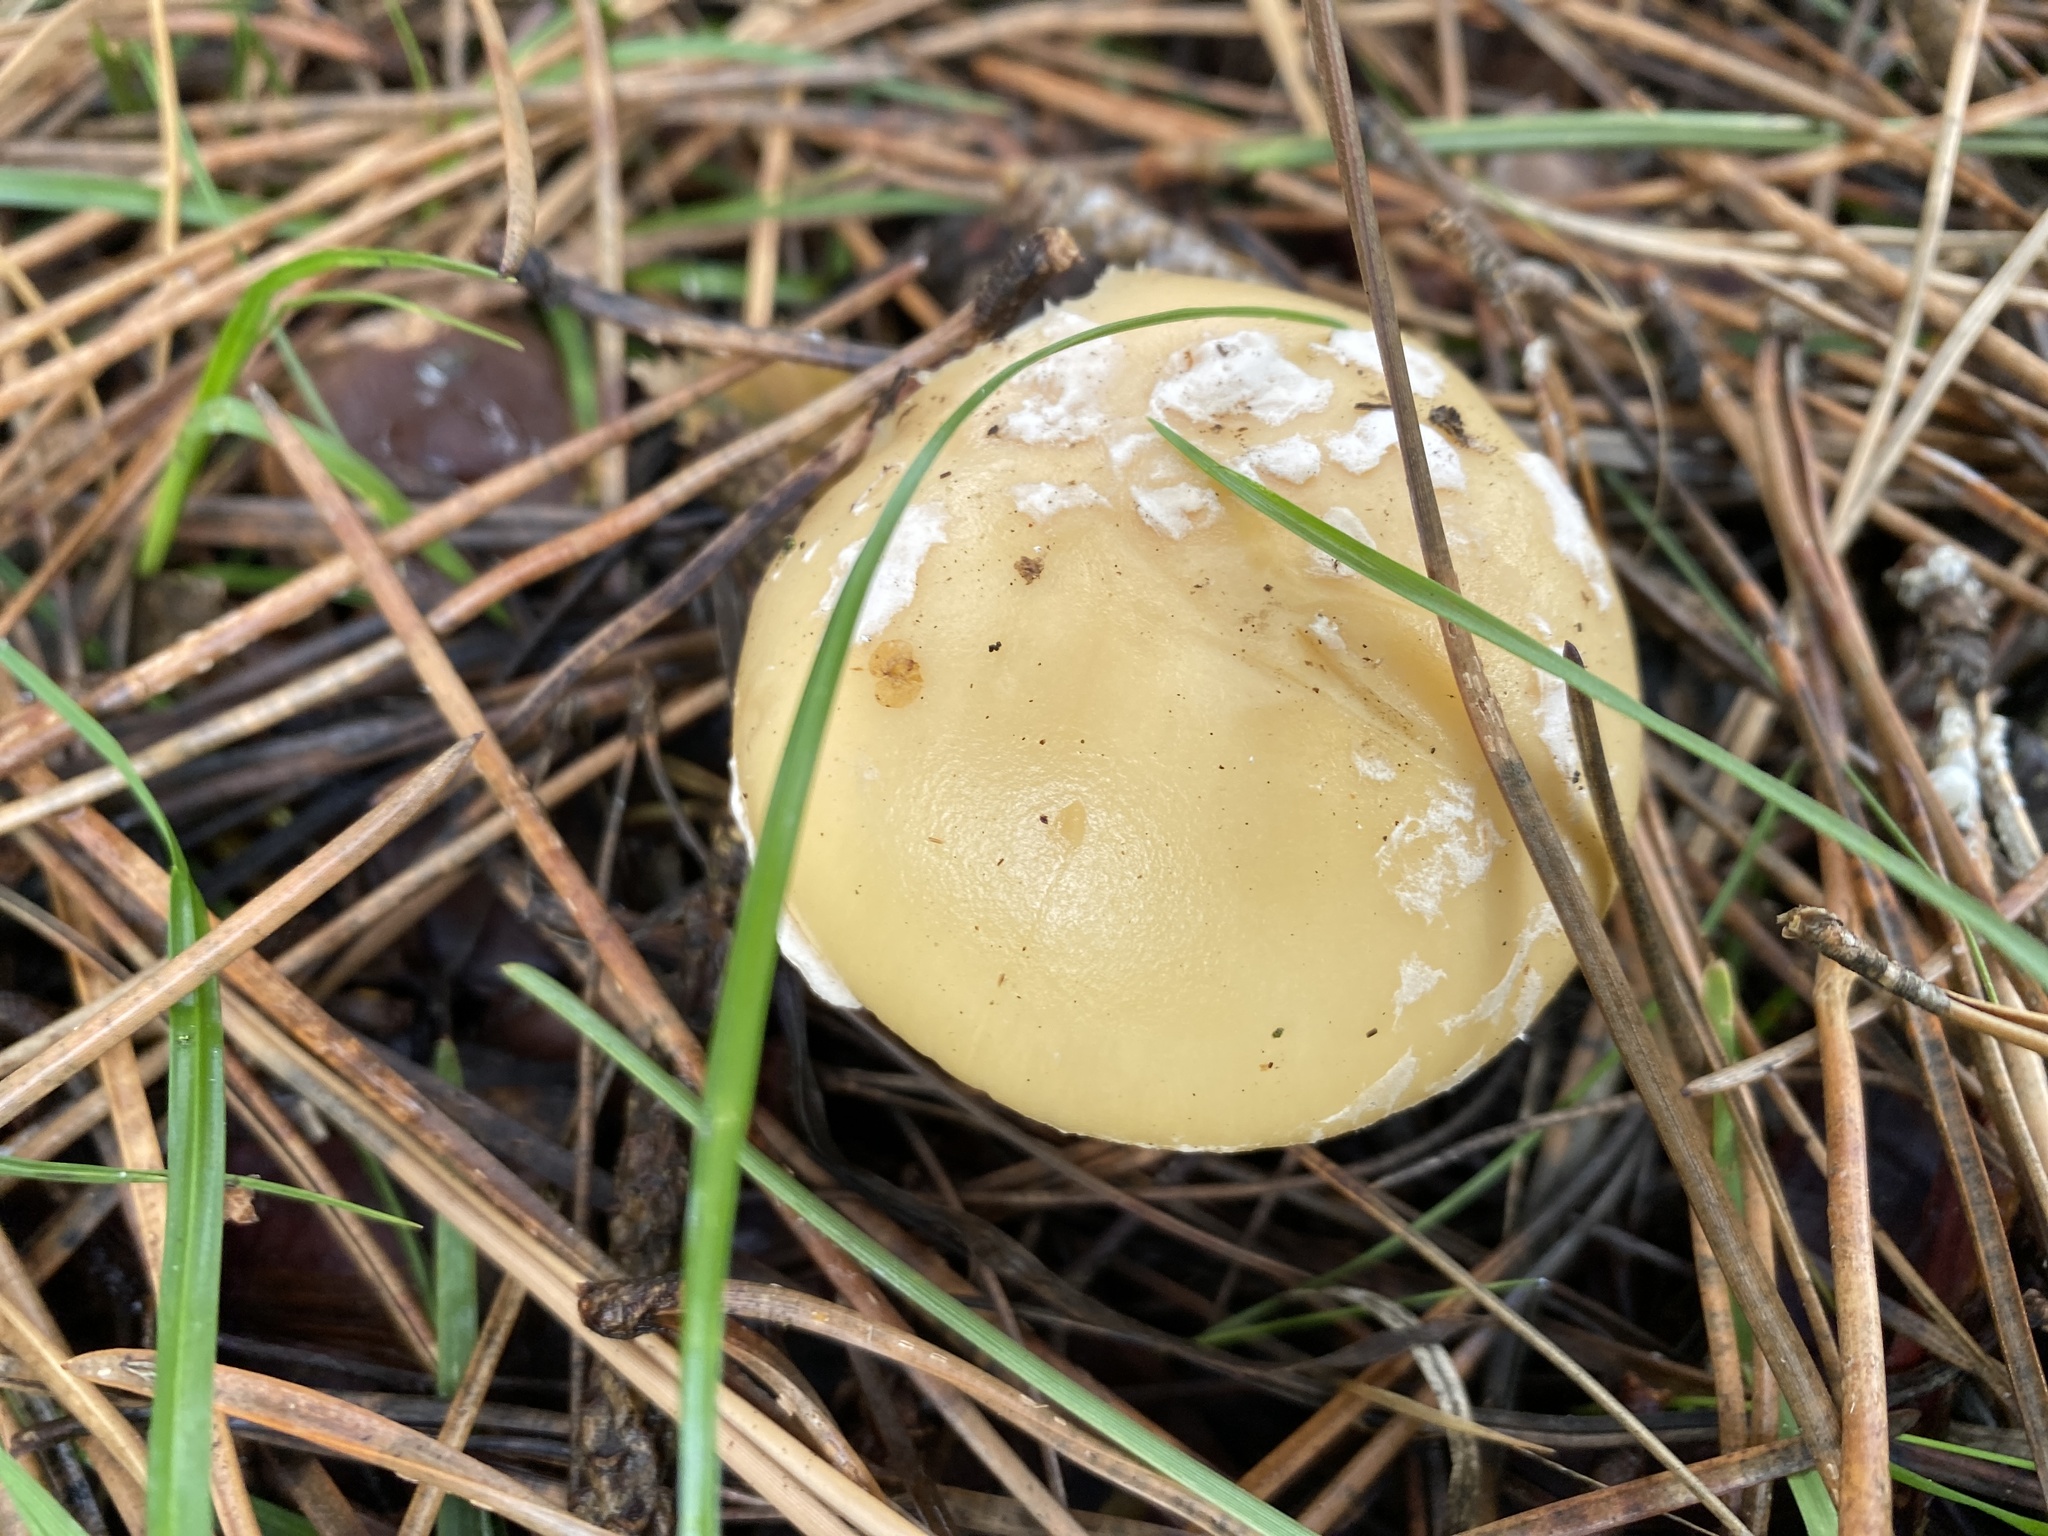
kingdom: Fungi
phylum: Basidiomycota
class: Agaricomycetes
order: Agaricales
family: Amanitaceae
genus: Amanita
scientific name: Amanita gemmata
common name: Jewelled amanita
